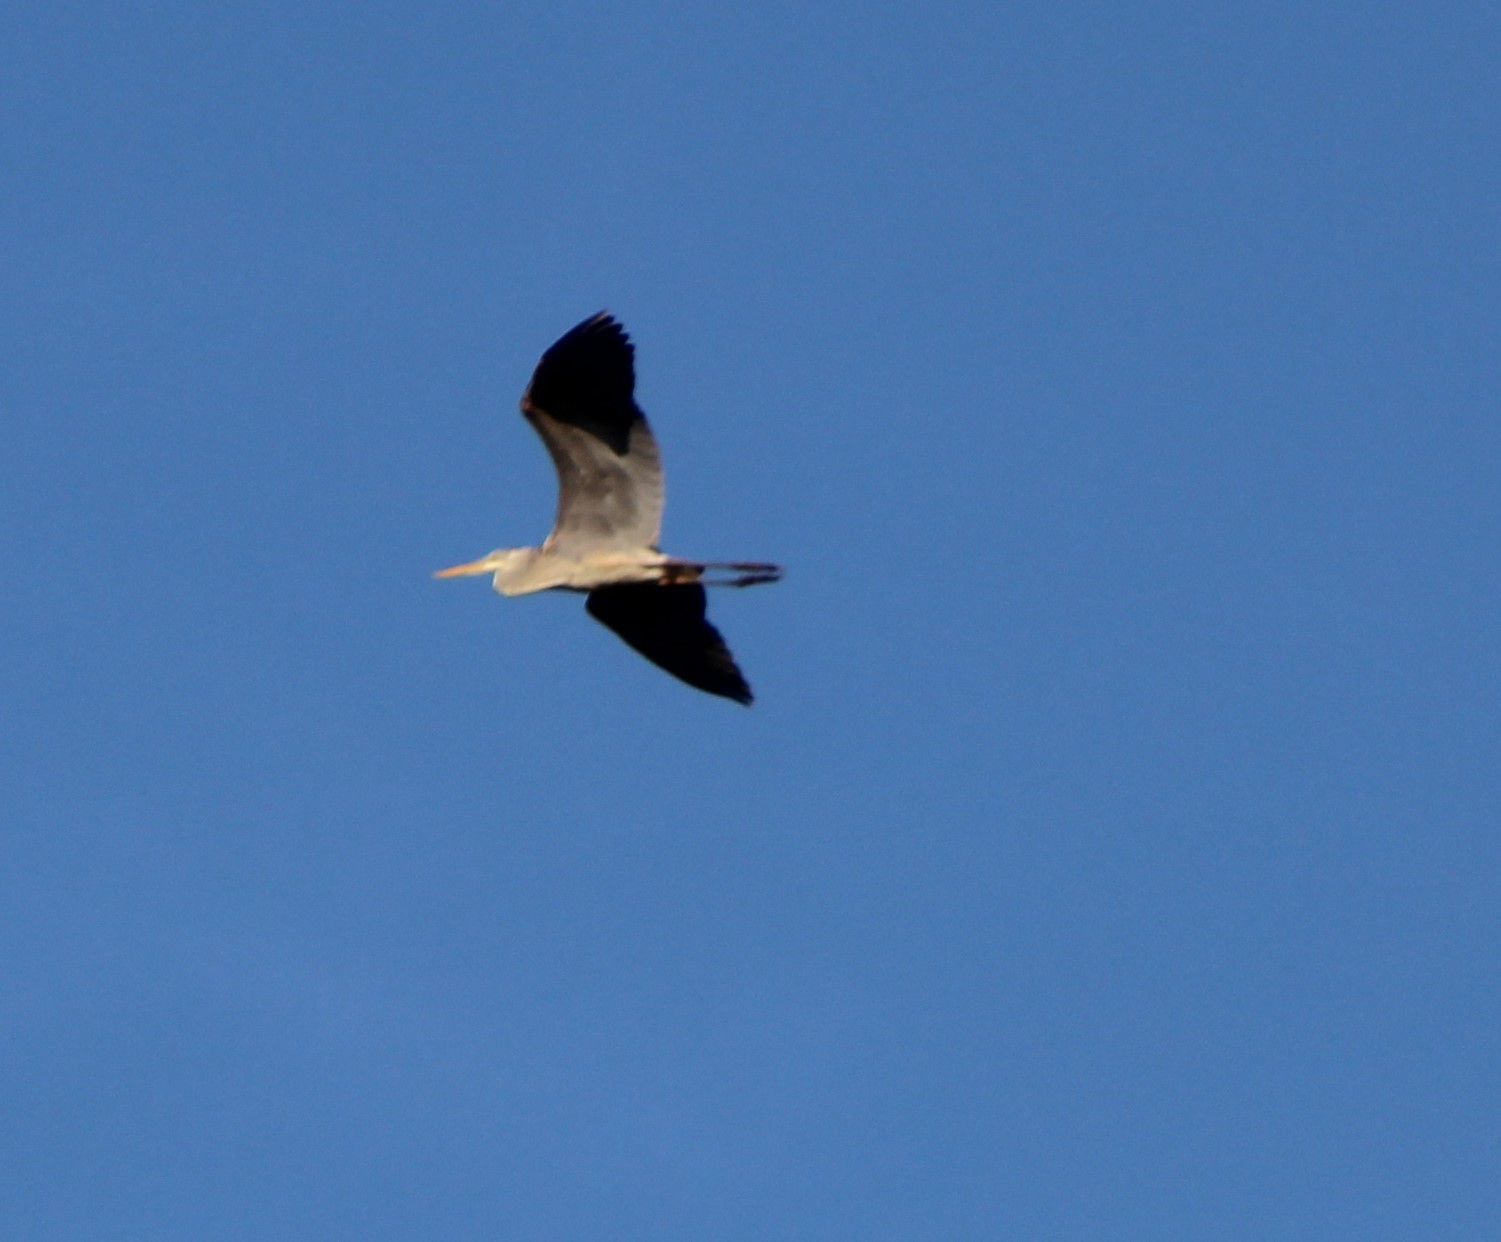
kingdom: Animalia
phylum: Chordata
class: Aves
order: Pelecaniformes
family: Ardeidae
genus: Ardea
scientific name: Ardea herodias
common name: Great blue heron
